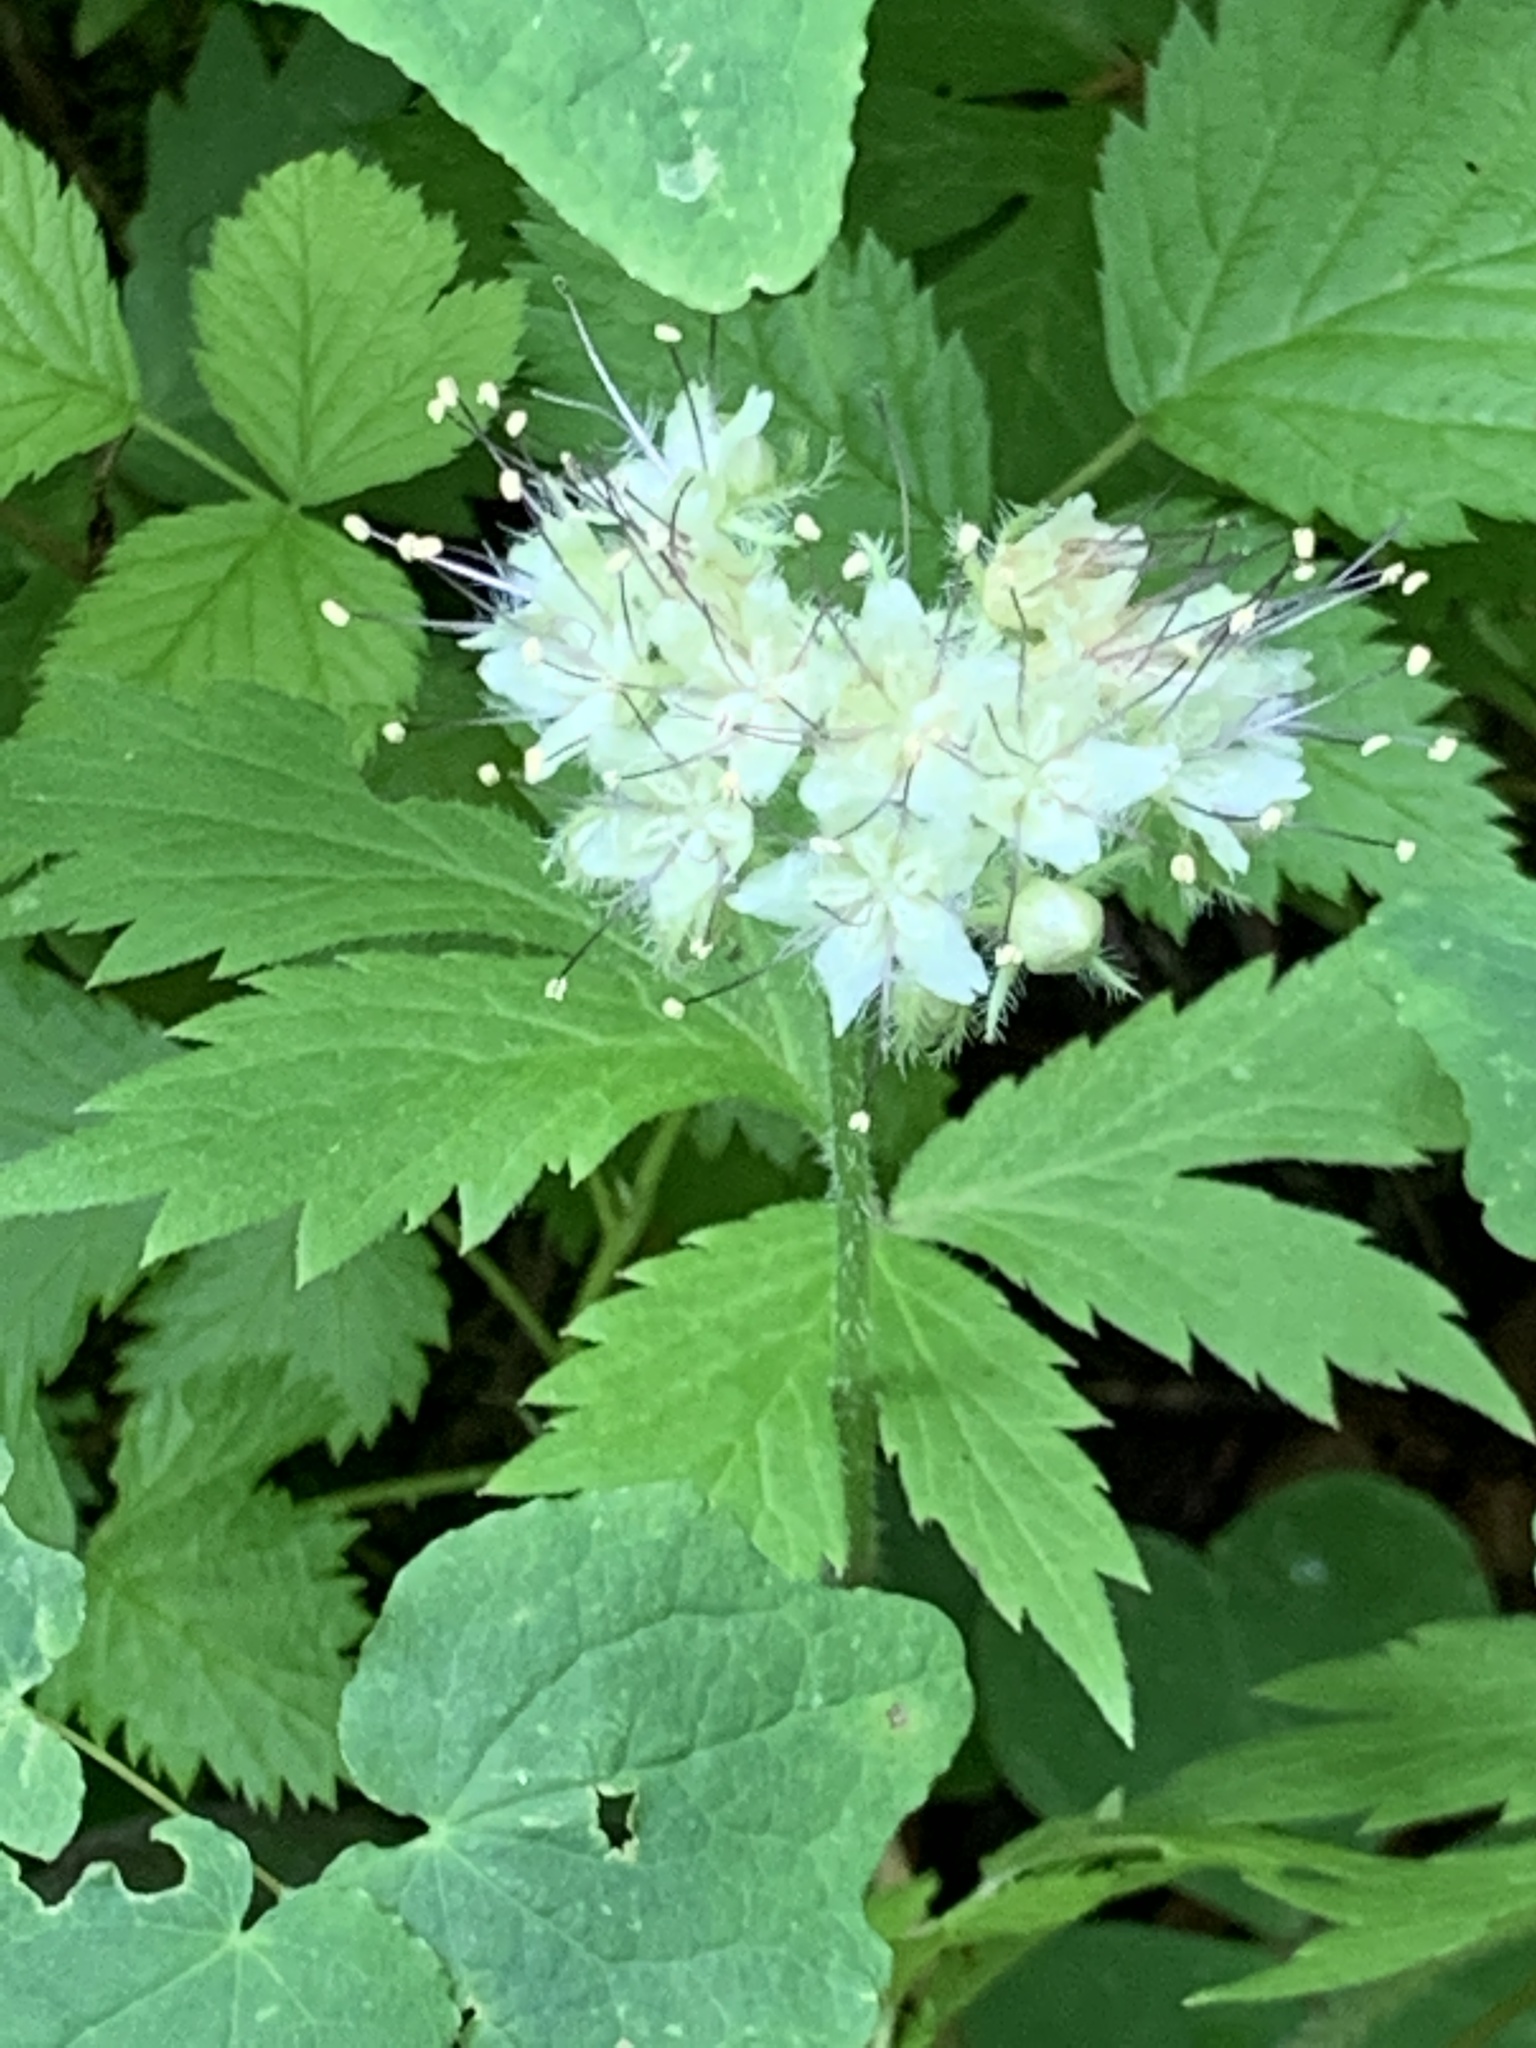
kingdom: Plantae
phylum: Tracheophyta
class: Magnoliopsida
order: Boraginales
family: Hydrophyllaceae
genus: Hydrophyllum
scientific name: Hydrophyllum tenuipes
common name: Pacific waterleaf
